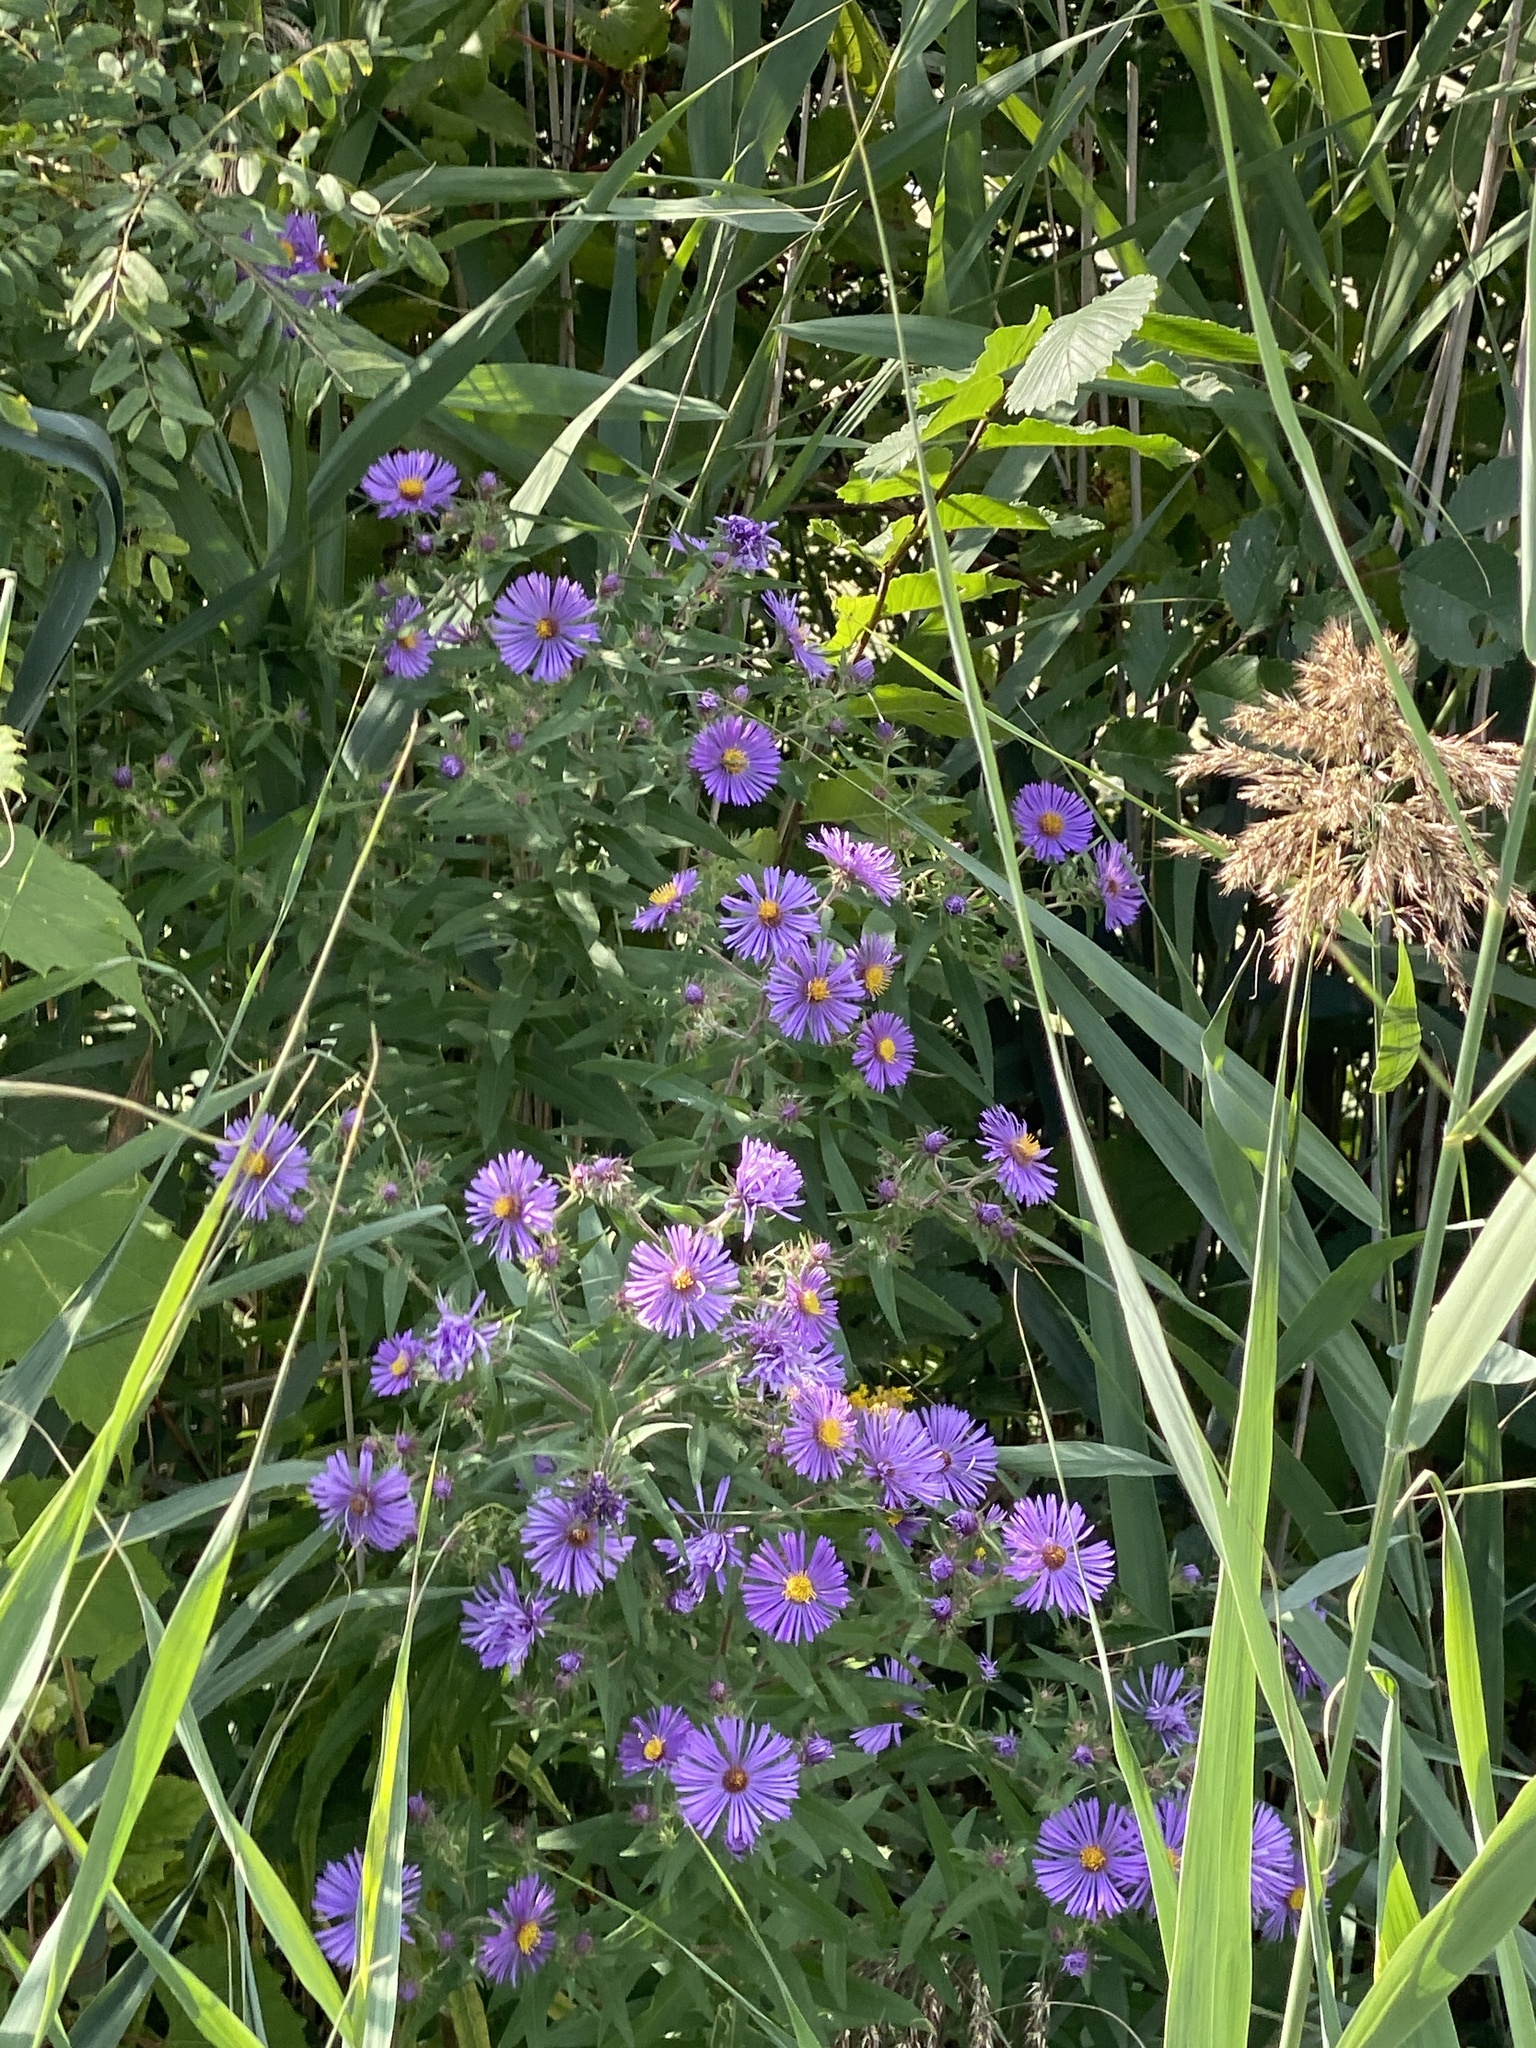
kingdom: Plantae
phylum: Tracheophyta
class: Magnoliopsida
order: Asterales
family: Asteraceae
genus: Symphyotrichum
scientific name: Symphyotrichum novae-angliae
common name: Michaelmas daisy
